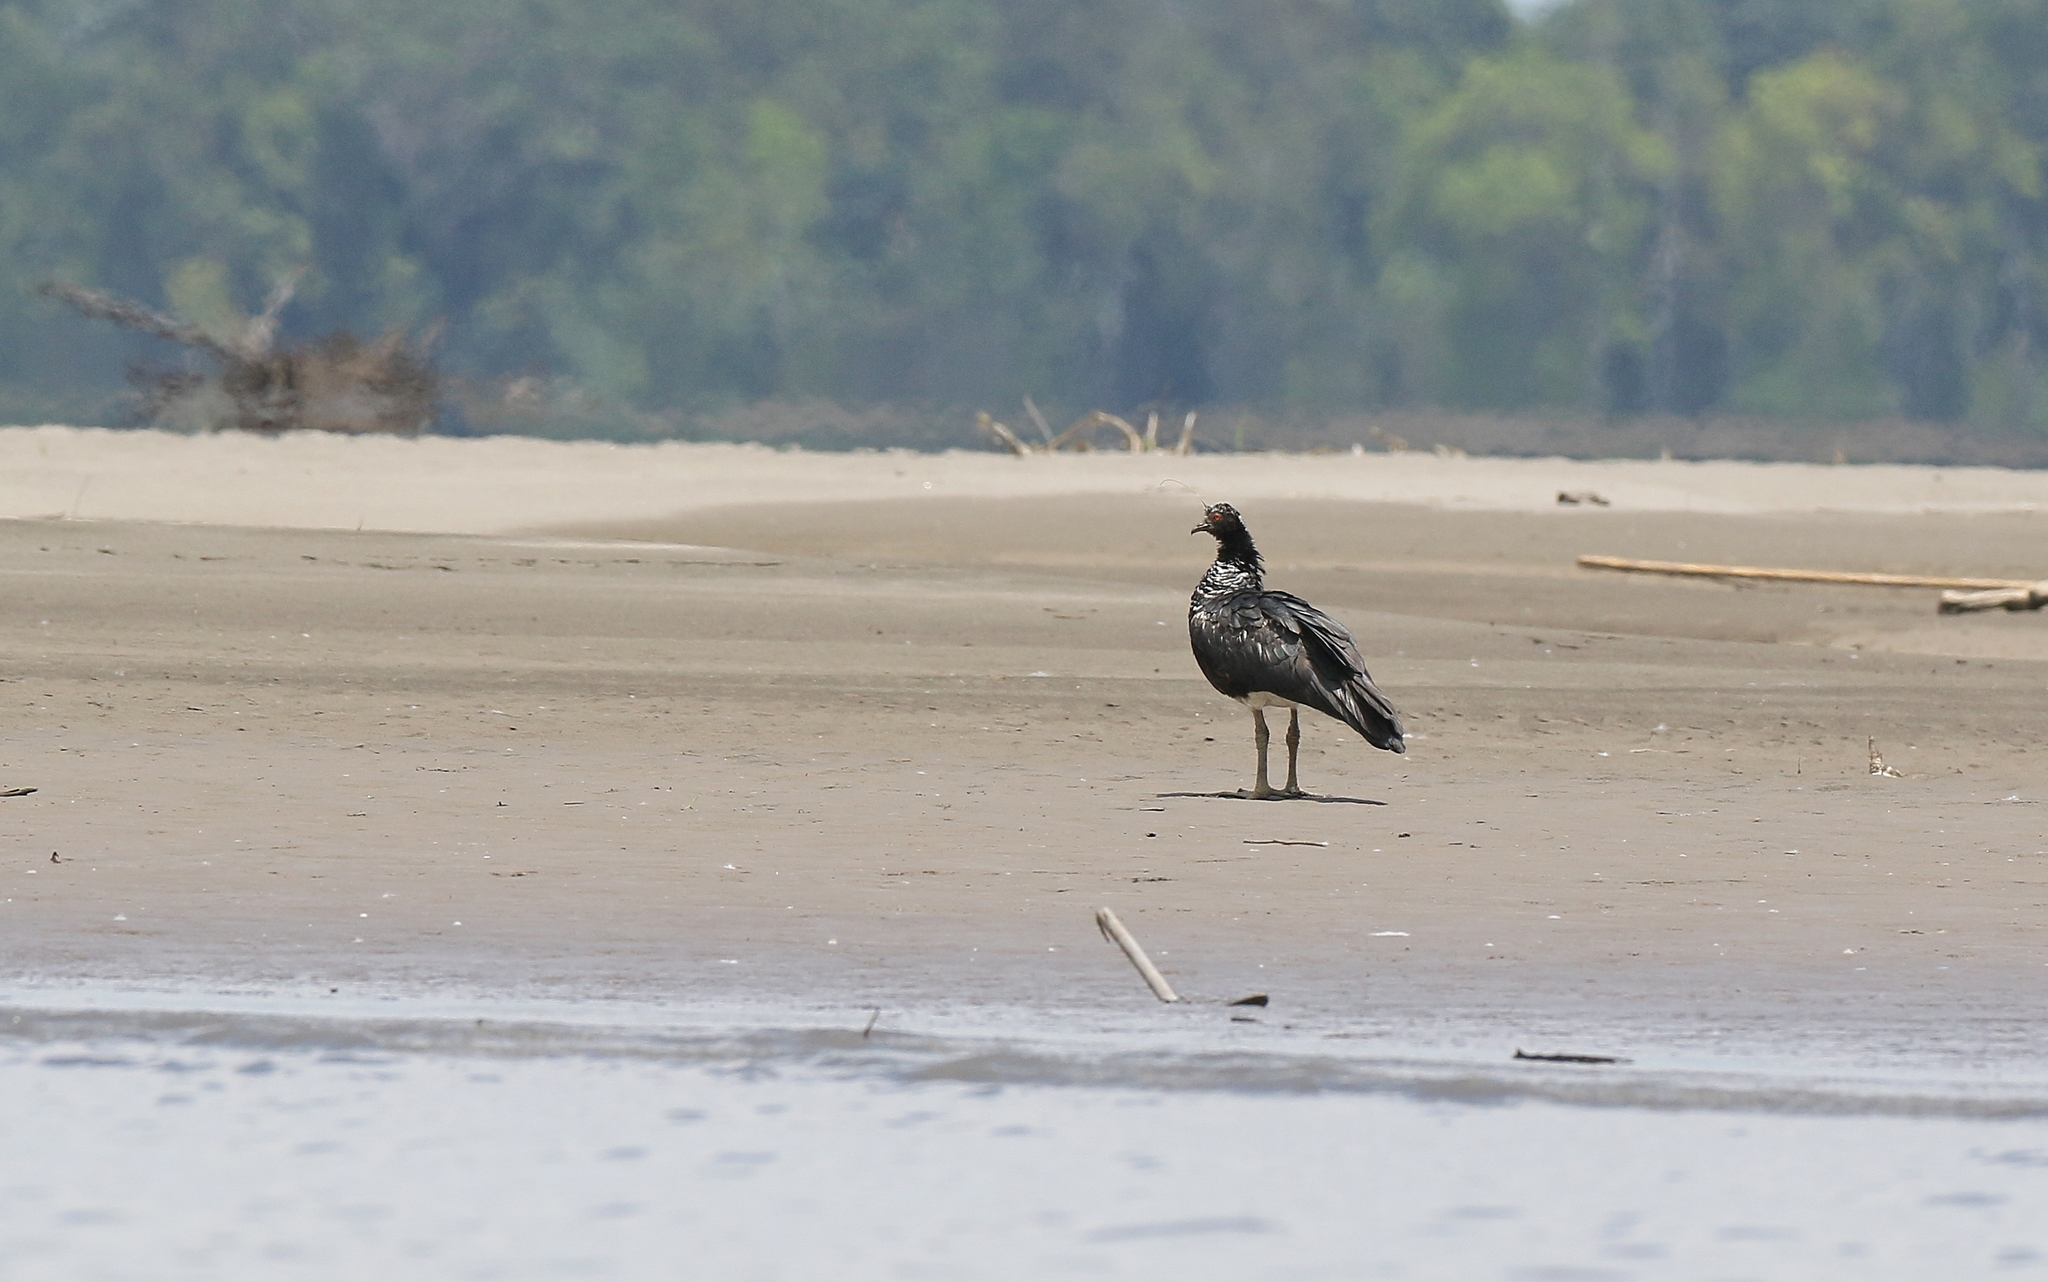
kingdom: Animalia
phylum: Chordata
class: Aves
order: Anseriformes
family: Anhimidae
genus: Anhima
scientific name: Anhima cornuta
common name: Horned screamer
